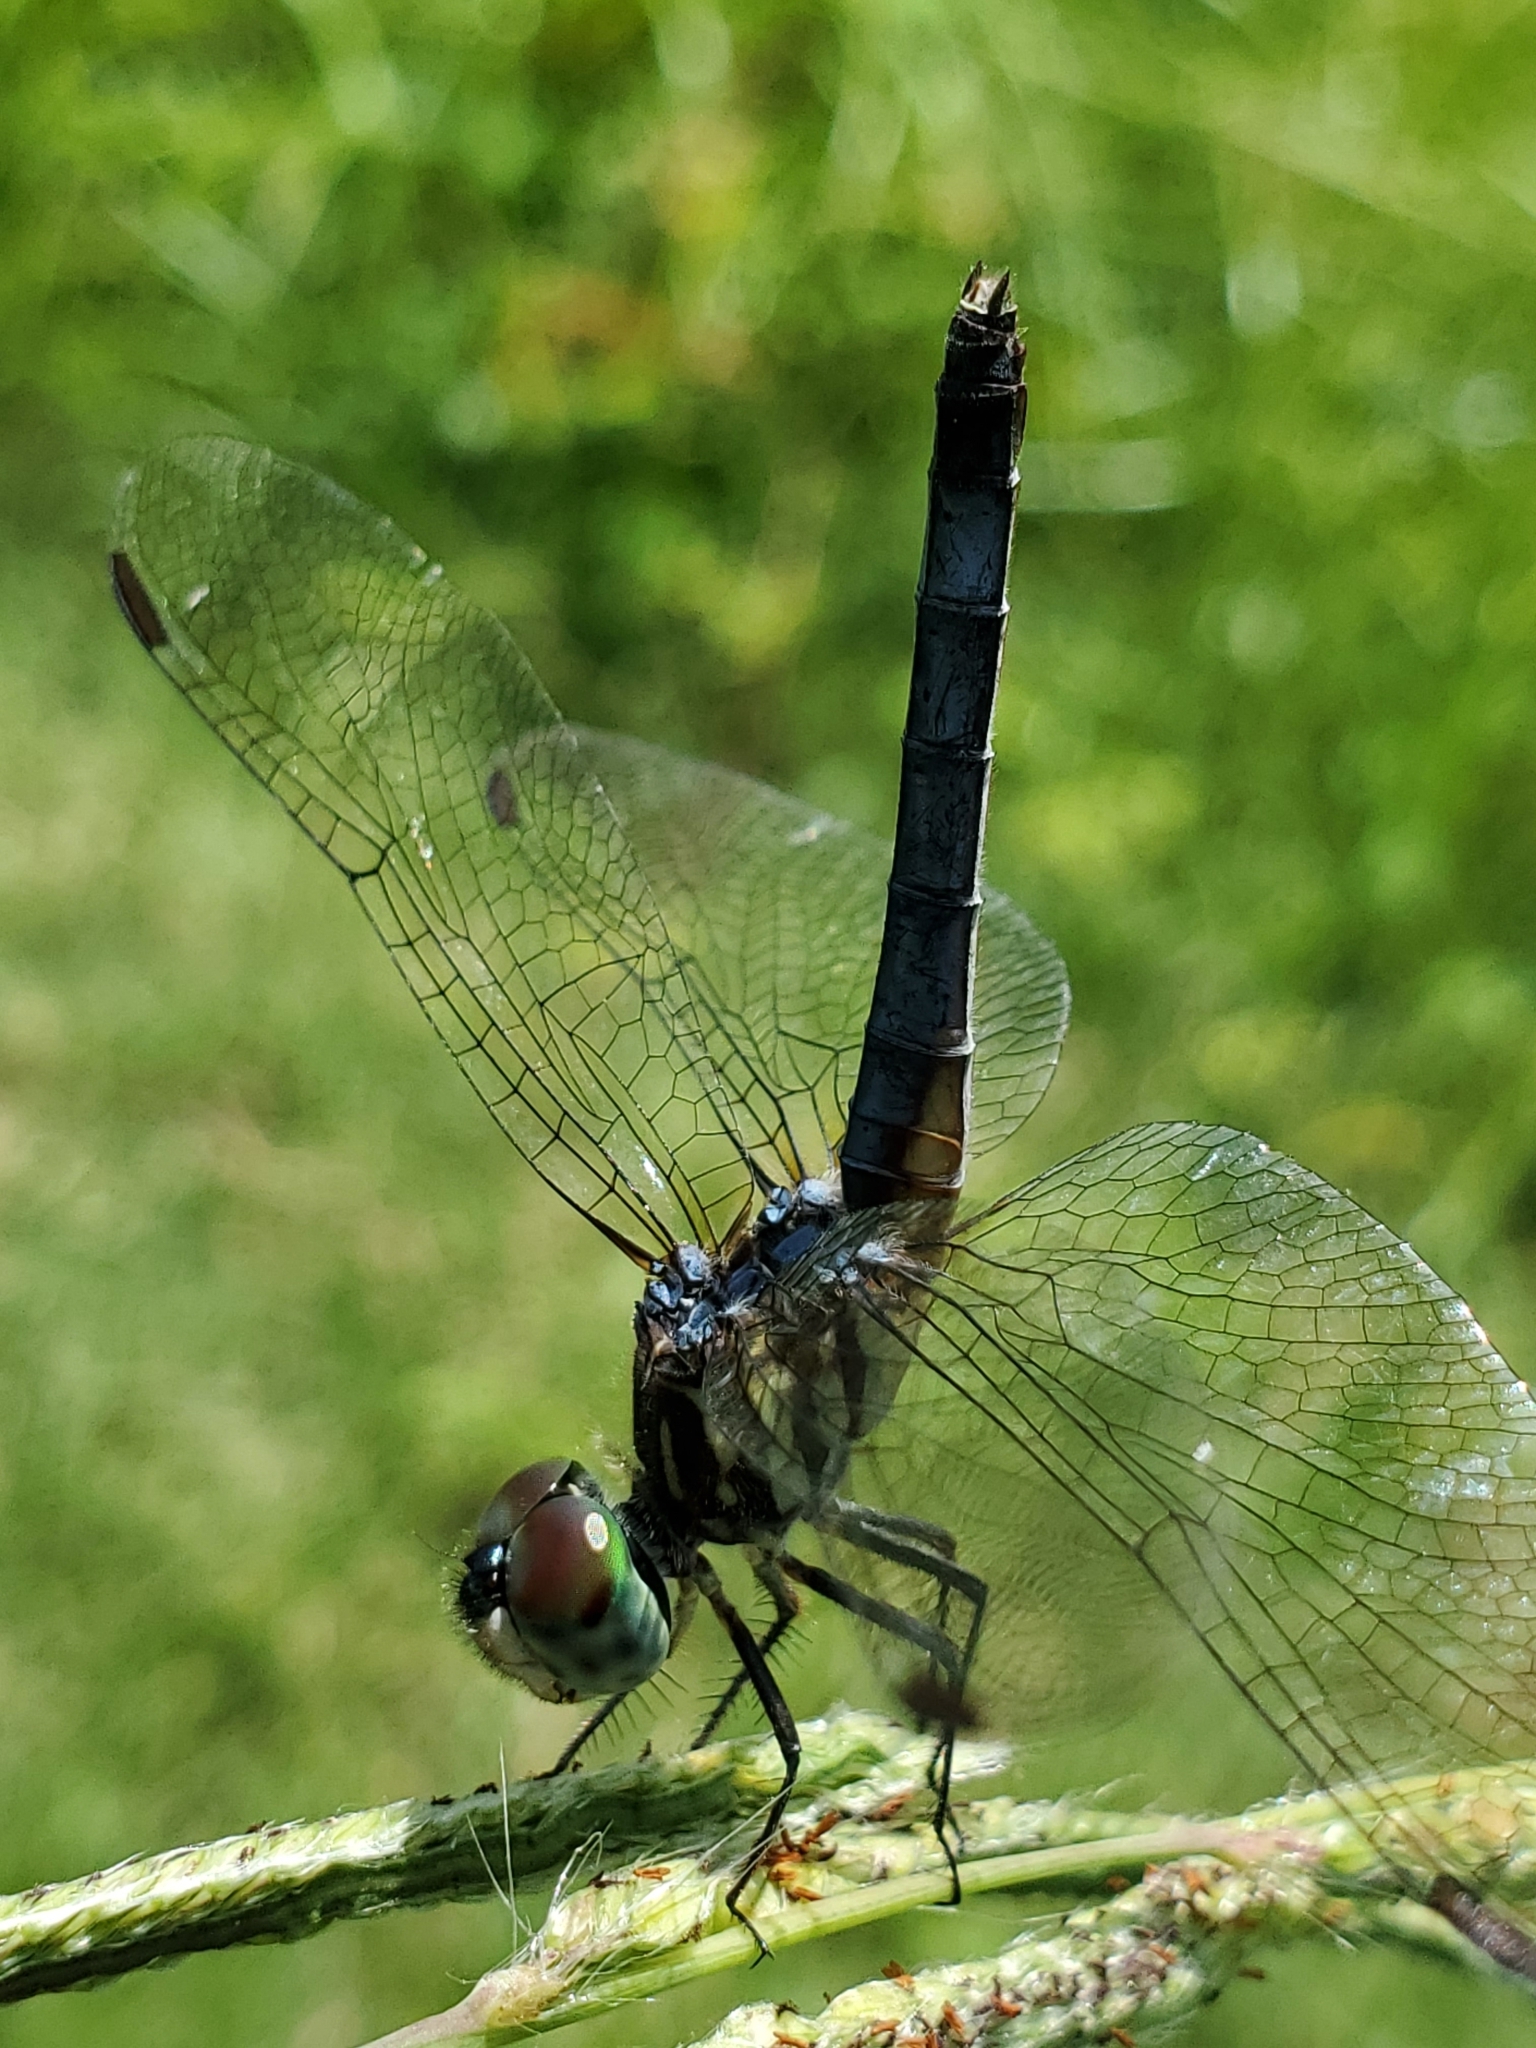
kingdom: Animalia
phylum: Arthropoda
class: Insecta
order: Odonata
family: Libellulidae
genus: Pachydiplax
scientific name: Pachydiplax longipennis
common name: Blue dasher
